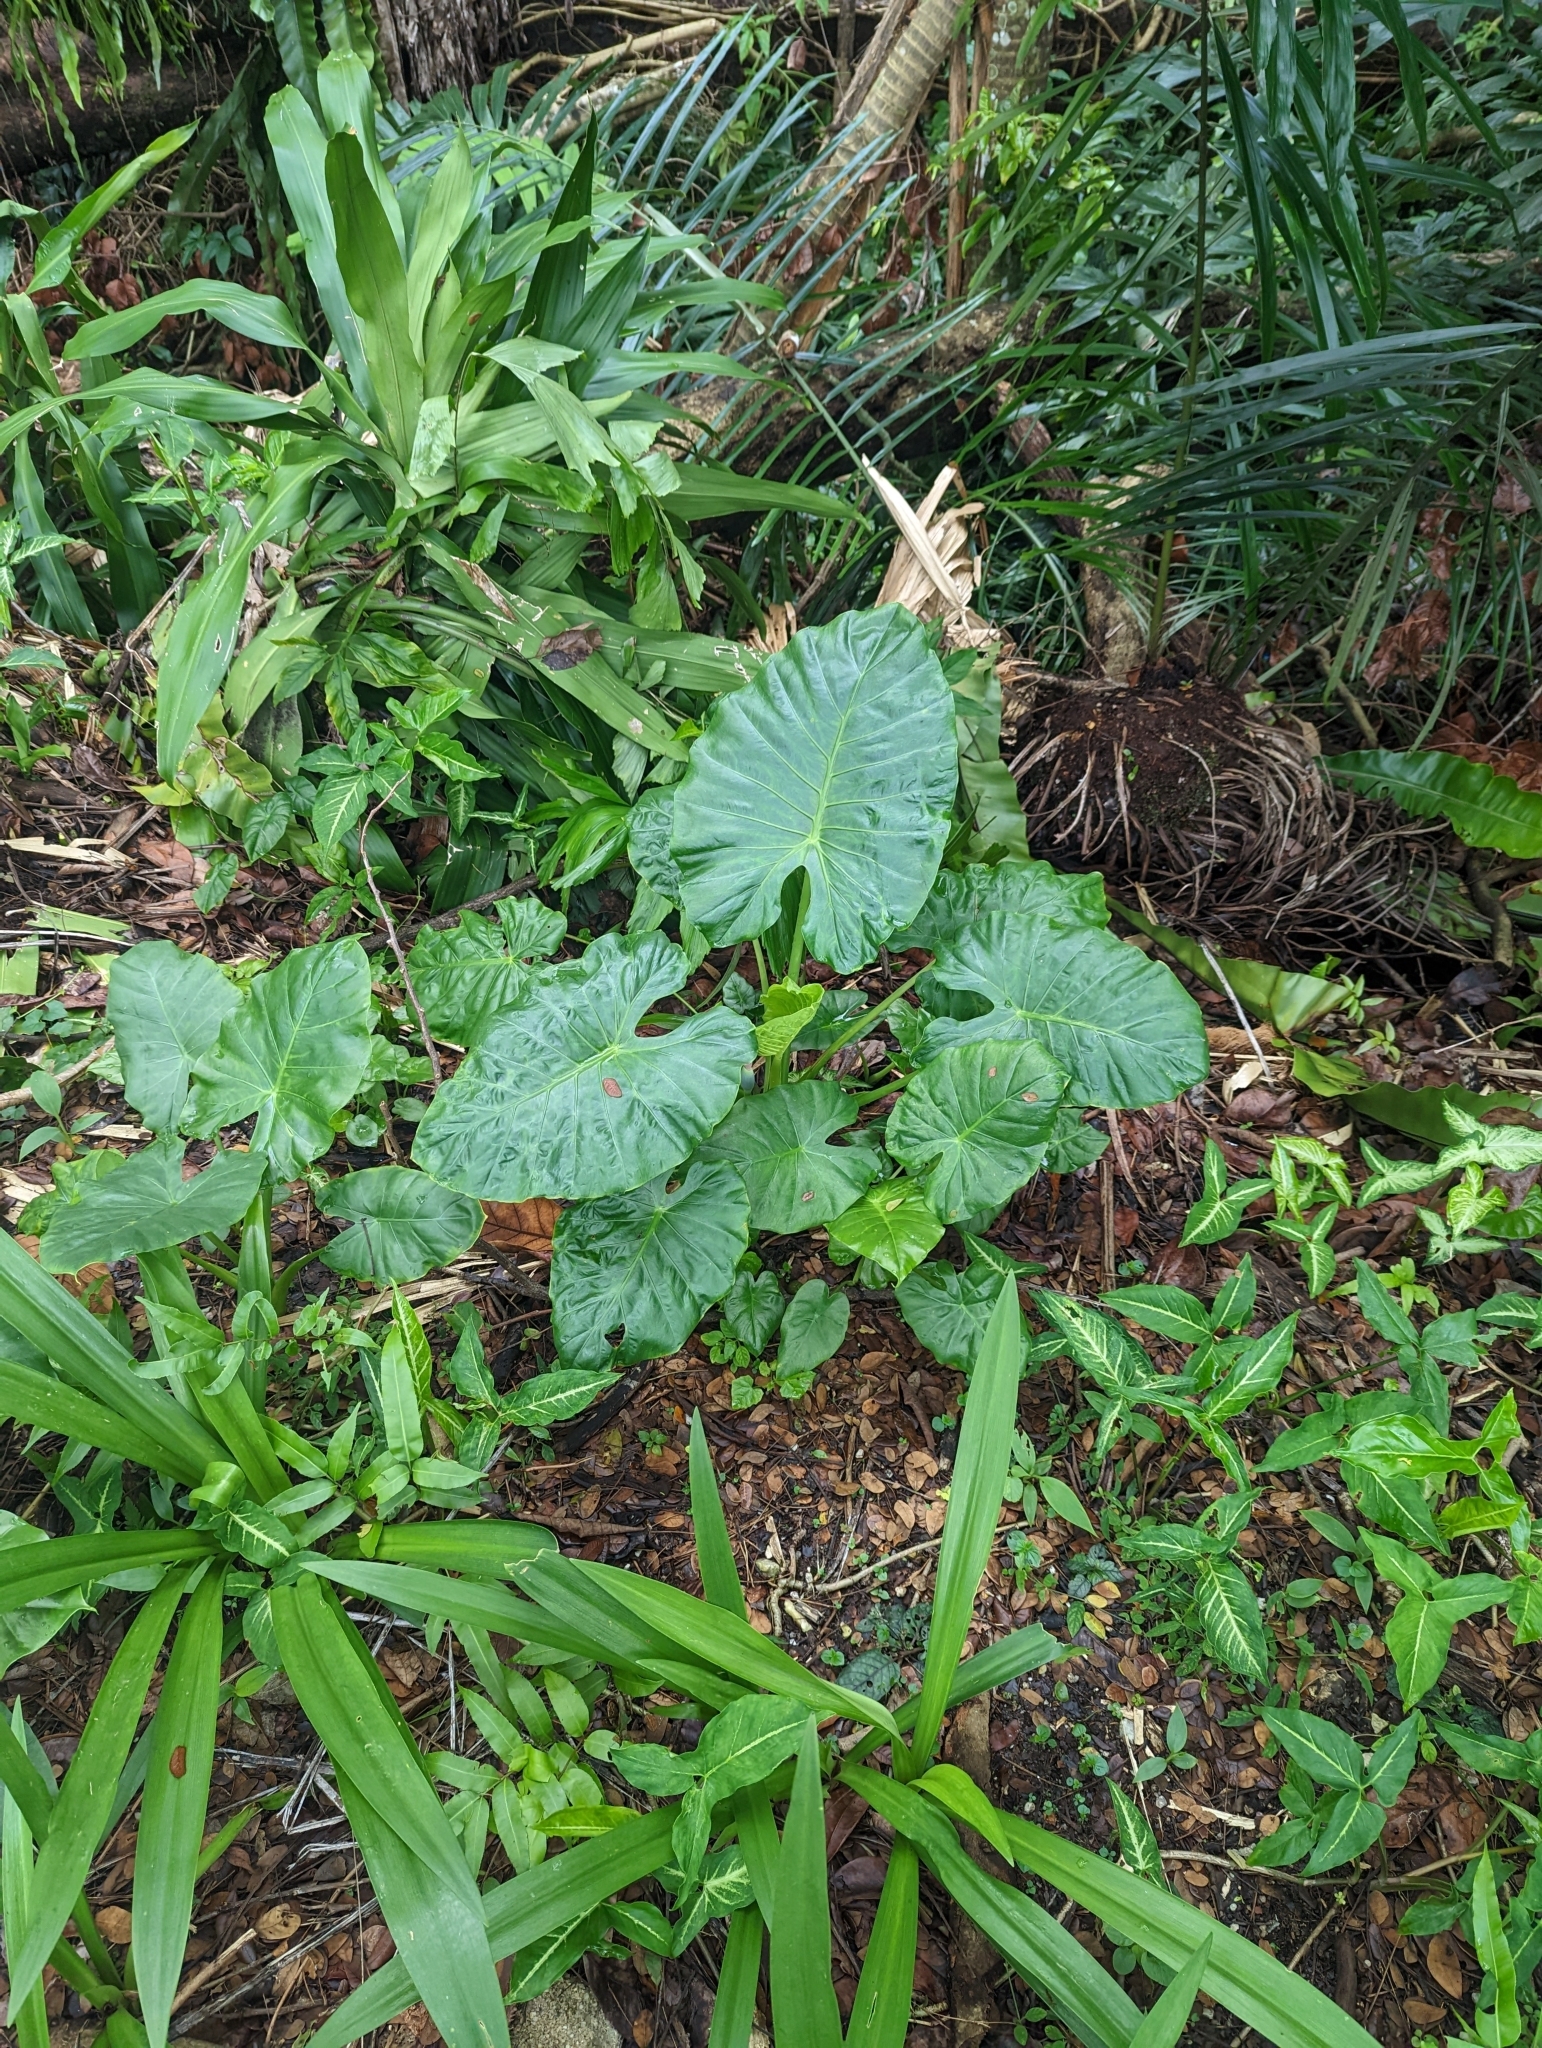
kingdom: Plantae
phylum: Tracheophyta
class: Liliopsida
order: Alismatales
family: Araceae
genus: Alocasia
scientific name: Alocasia odora
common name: Asian taro
